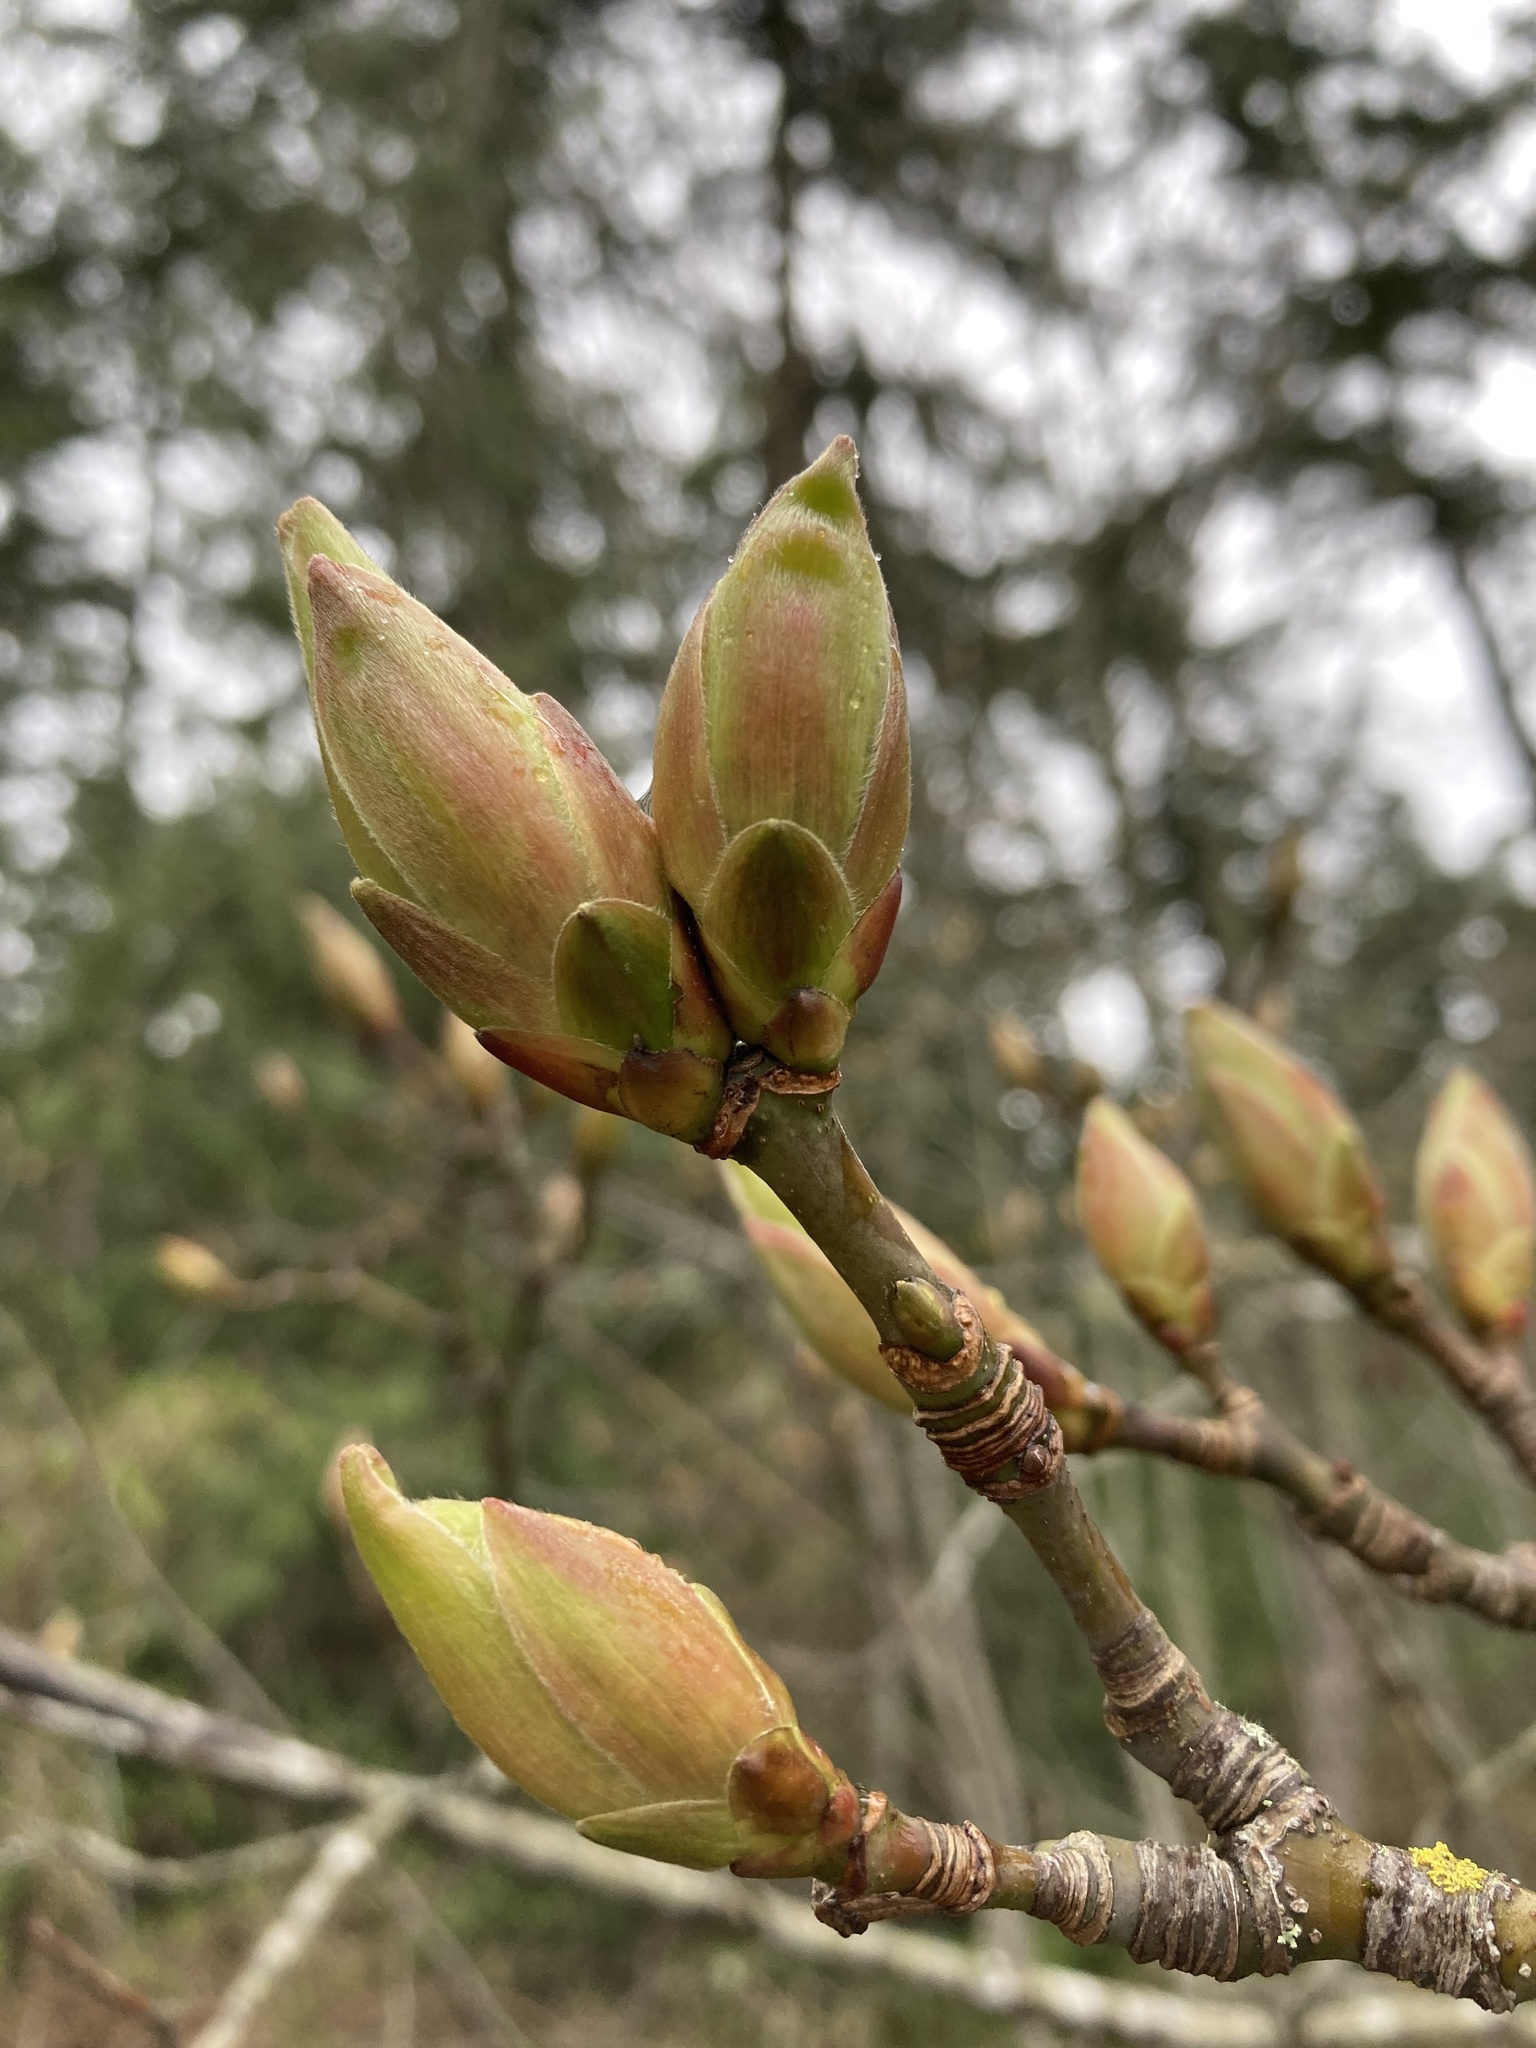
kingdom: Plantae
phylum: Tracheophyta
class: Magnoliopsida
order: Sapindales
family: Sapindaceae
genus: Acer
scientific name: Acer macrophyllum
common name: Oregon maple
